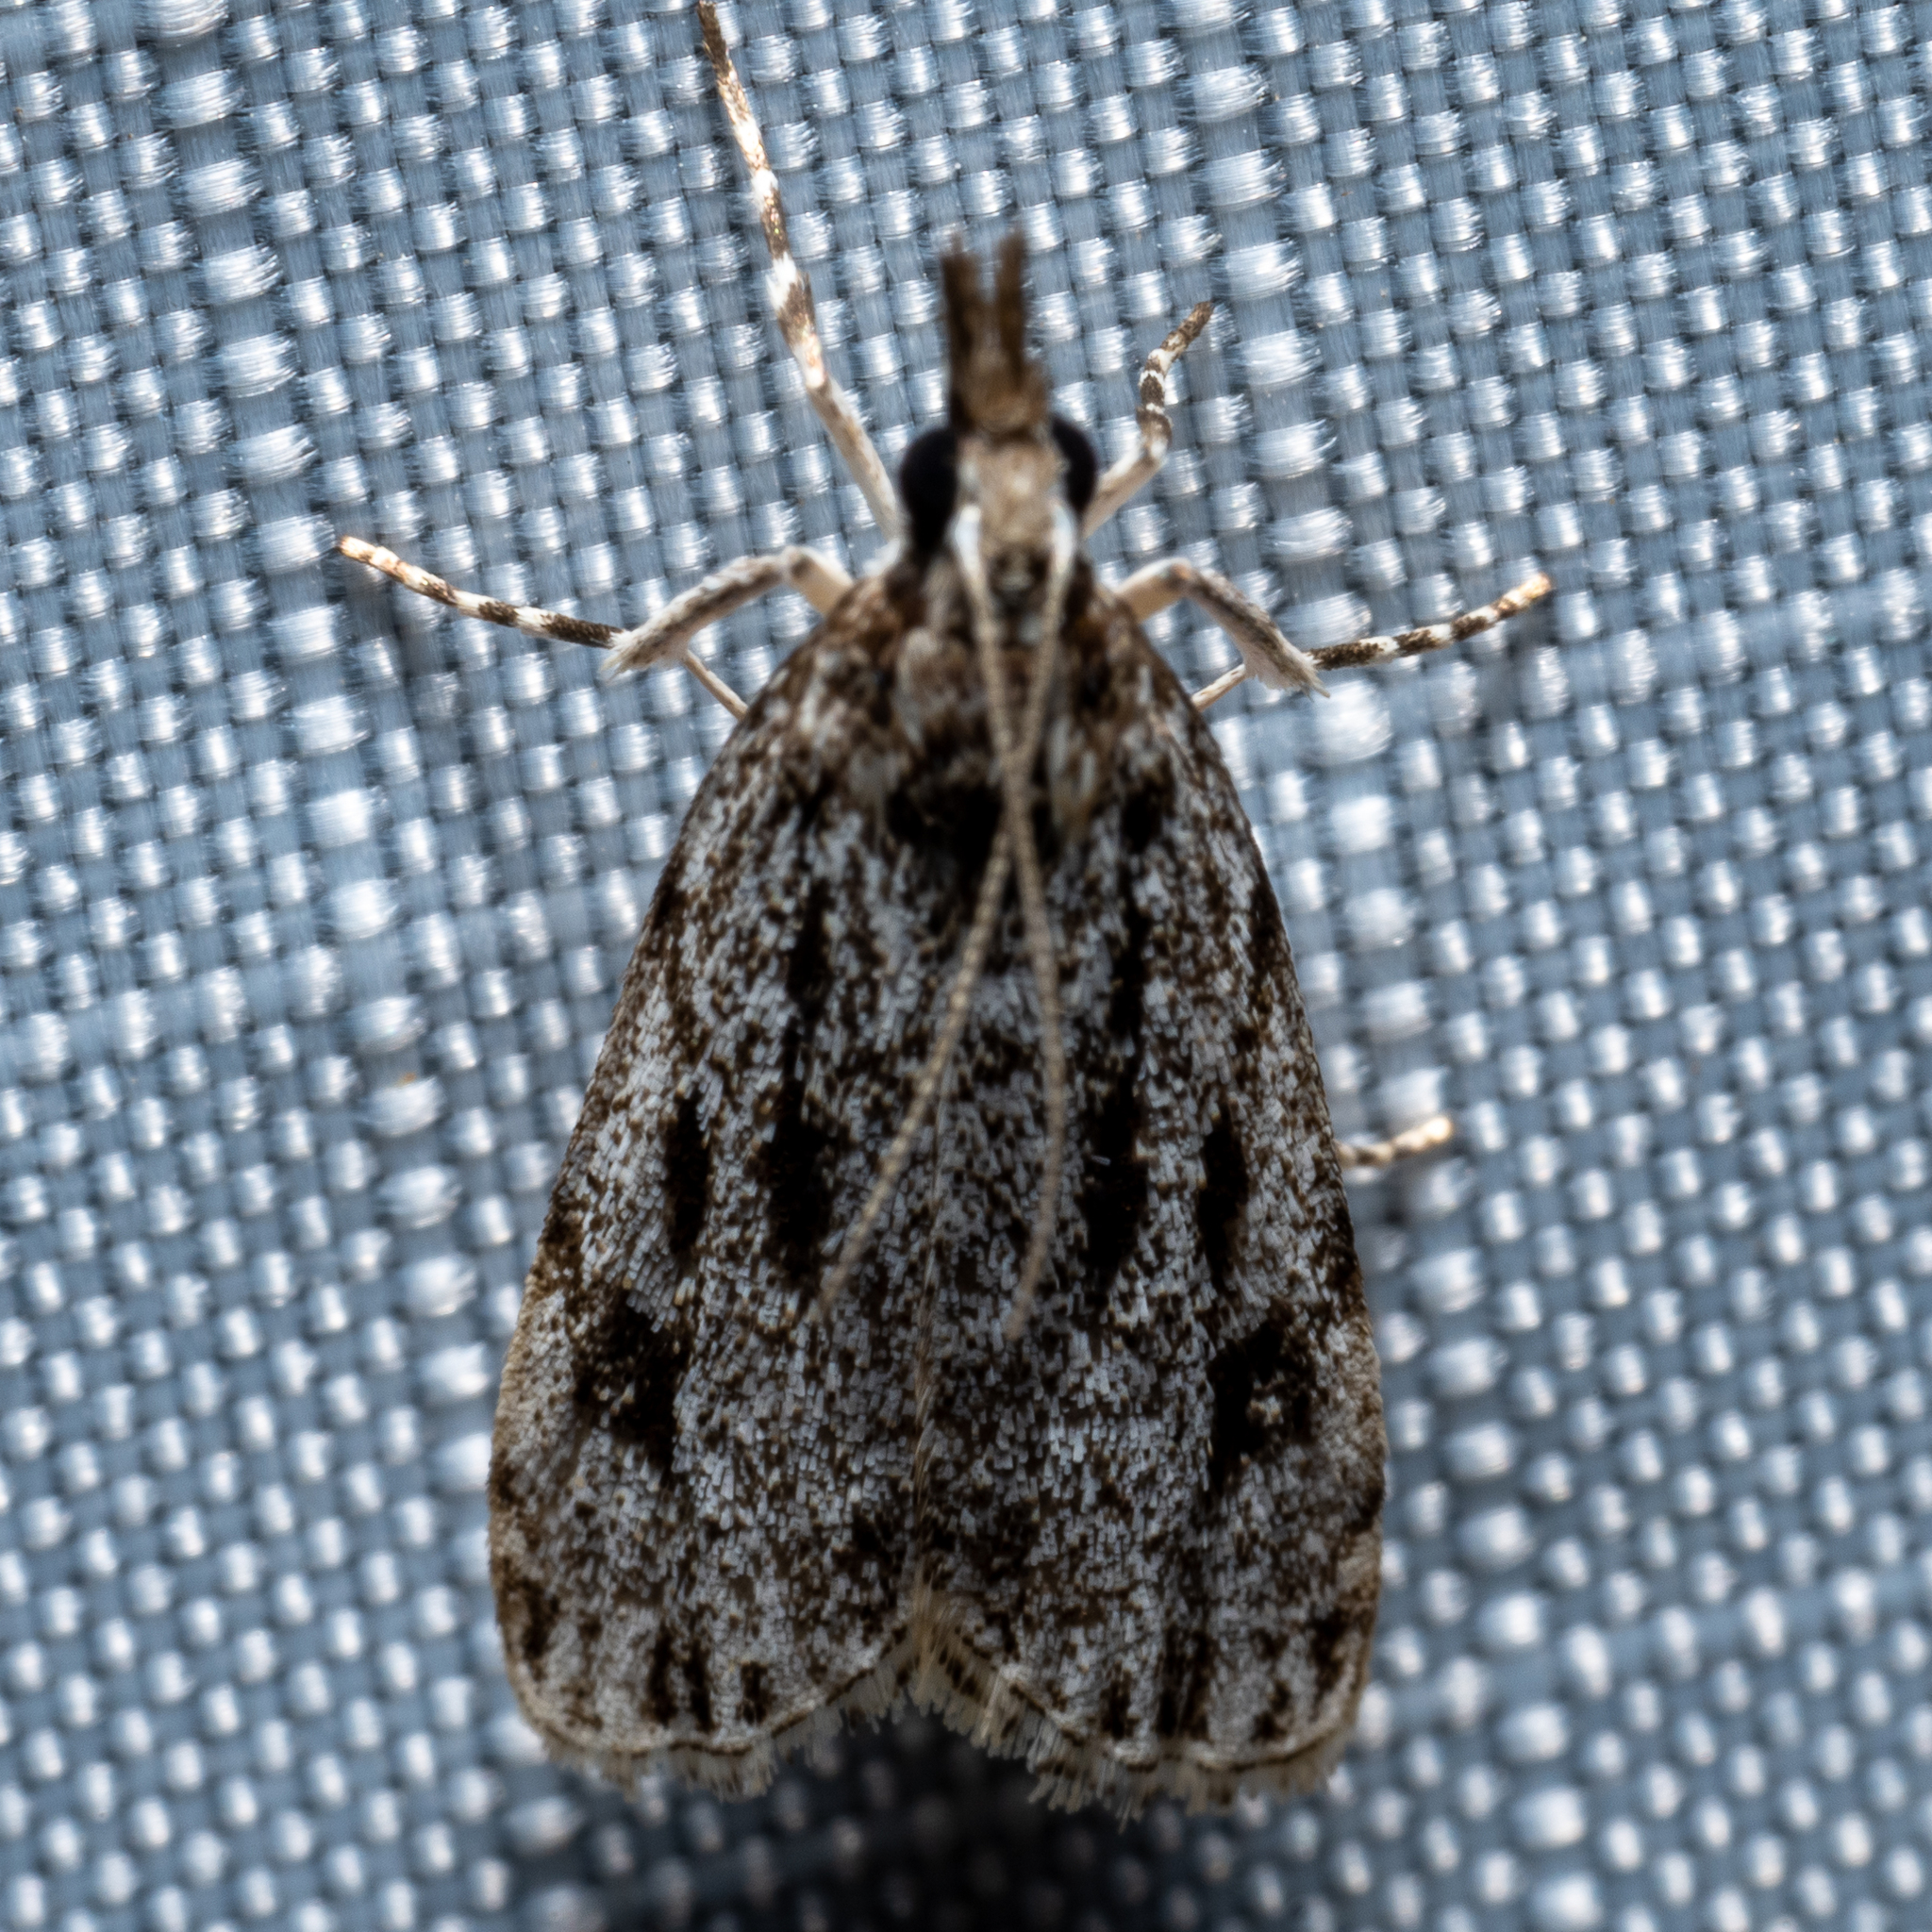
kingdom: Animalia
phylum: Arthropoda
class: Insecta
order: Lepidoptera
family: Crambidae
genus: Eudonia
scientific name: Eudonia strigalis
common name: Striped eudonia moth
